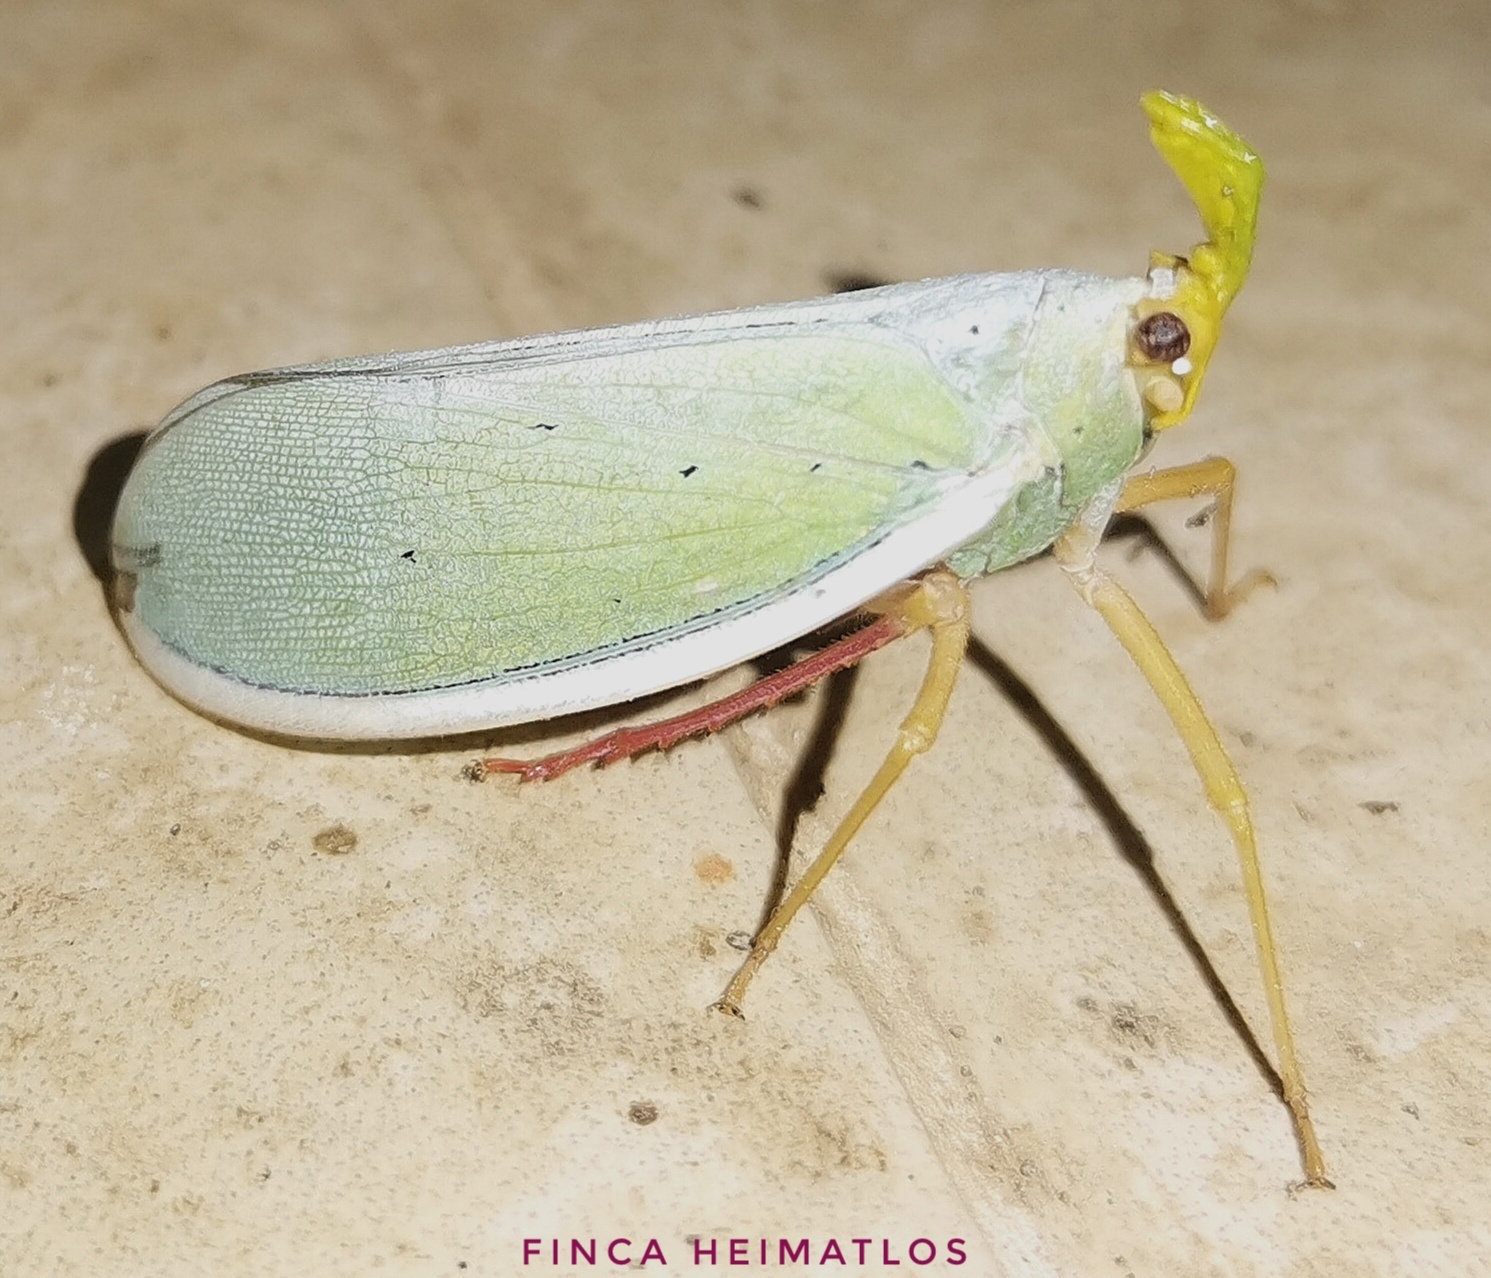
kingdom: Animalia
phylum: Arthropoda
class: Insecta
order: Hemiptera
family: Fulgoridae
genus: Enchophora
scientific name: Enchophora prasina
